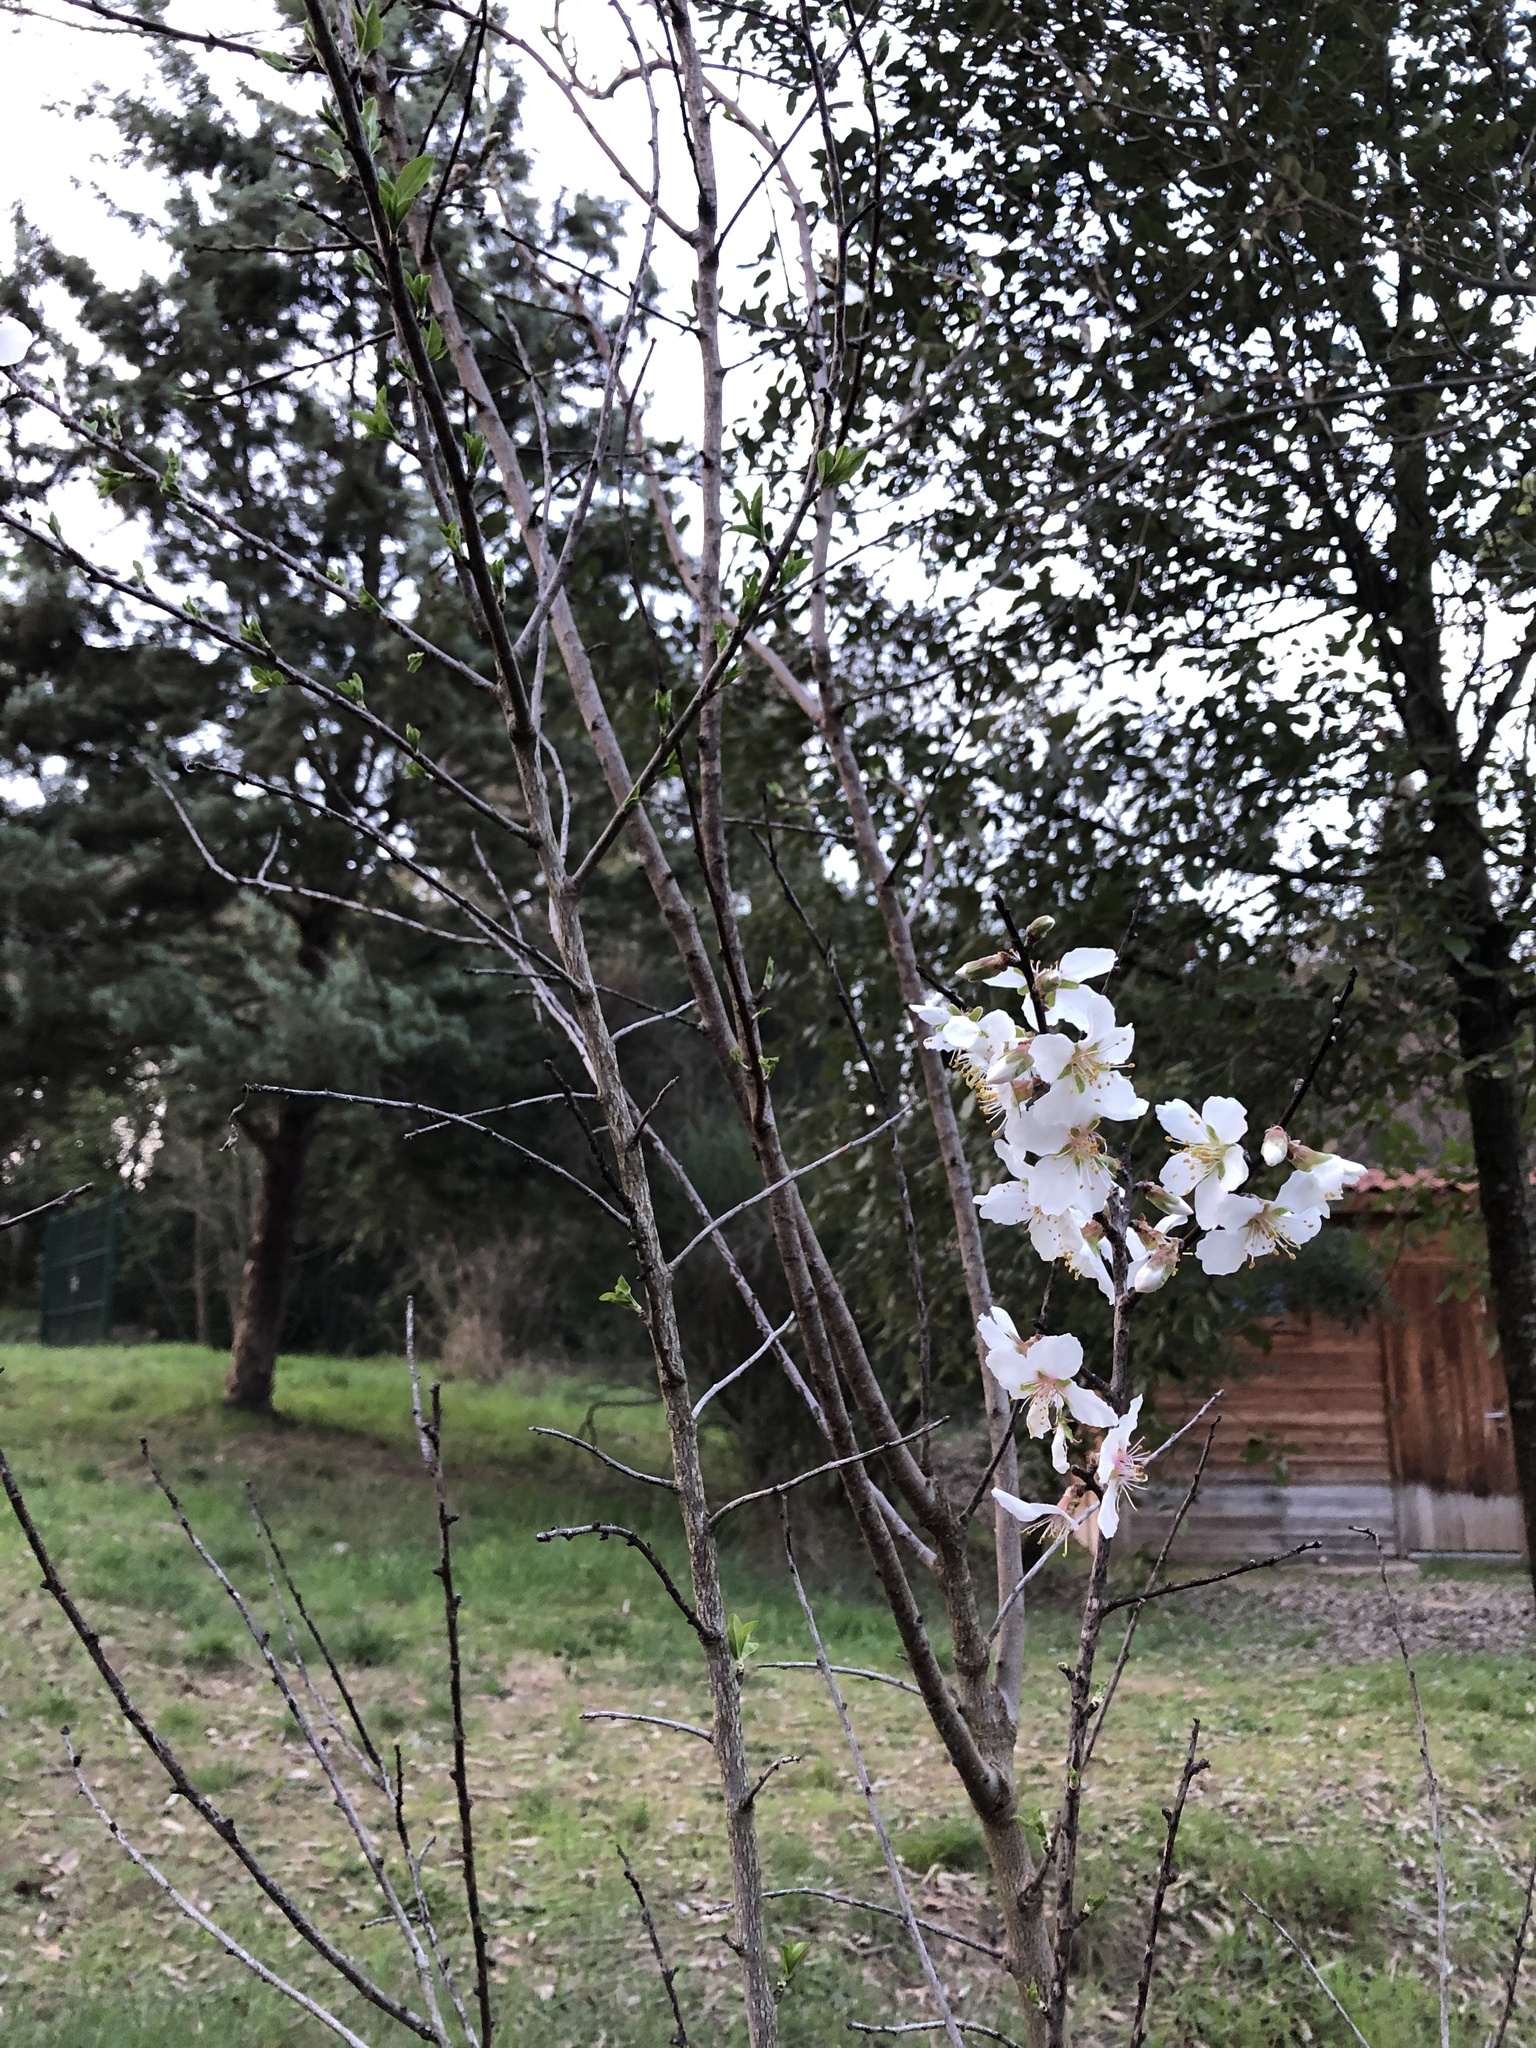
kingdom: Plantae
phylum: Tracheophyta
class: Magnoliopsida
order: Rosales
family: Rosaceae
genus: Prunus
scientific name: Prunus amygdalus
